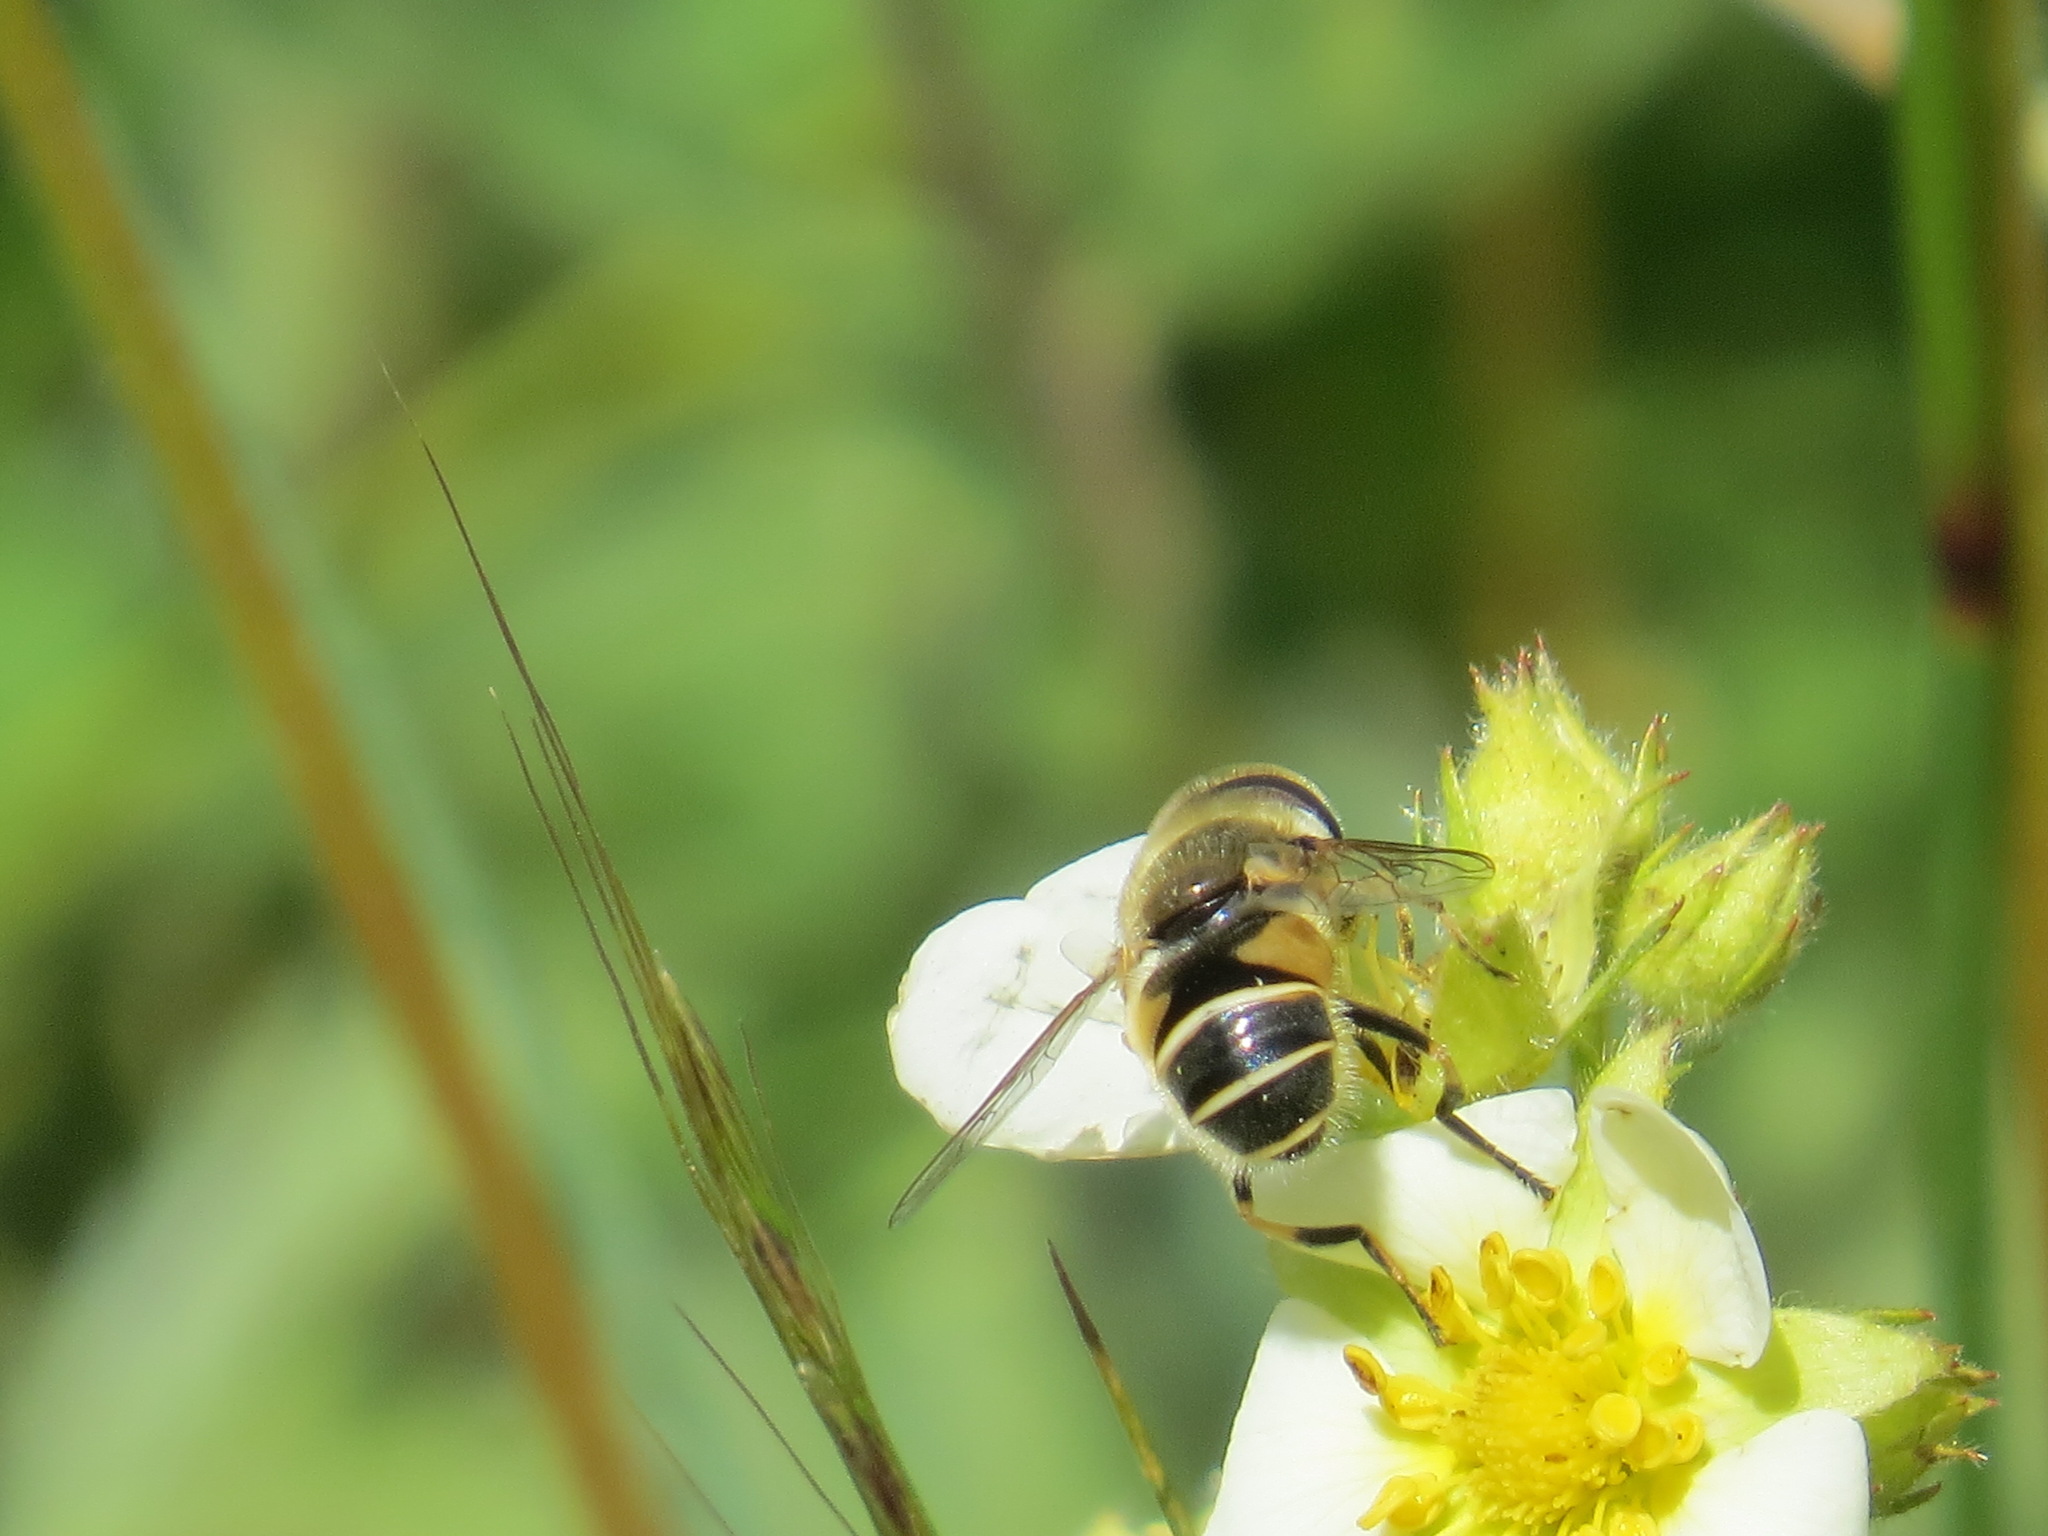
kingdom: Animalia
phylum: Arthropoda
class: Insecta
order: Diptera
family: Syrphidae
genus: Eristalis
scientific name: Eristalis hirta
